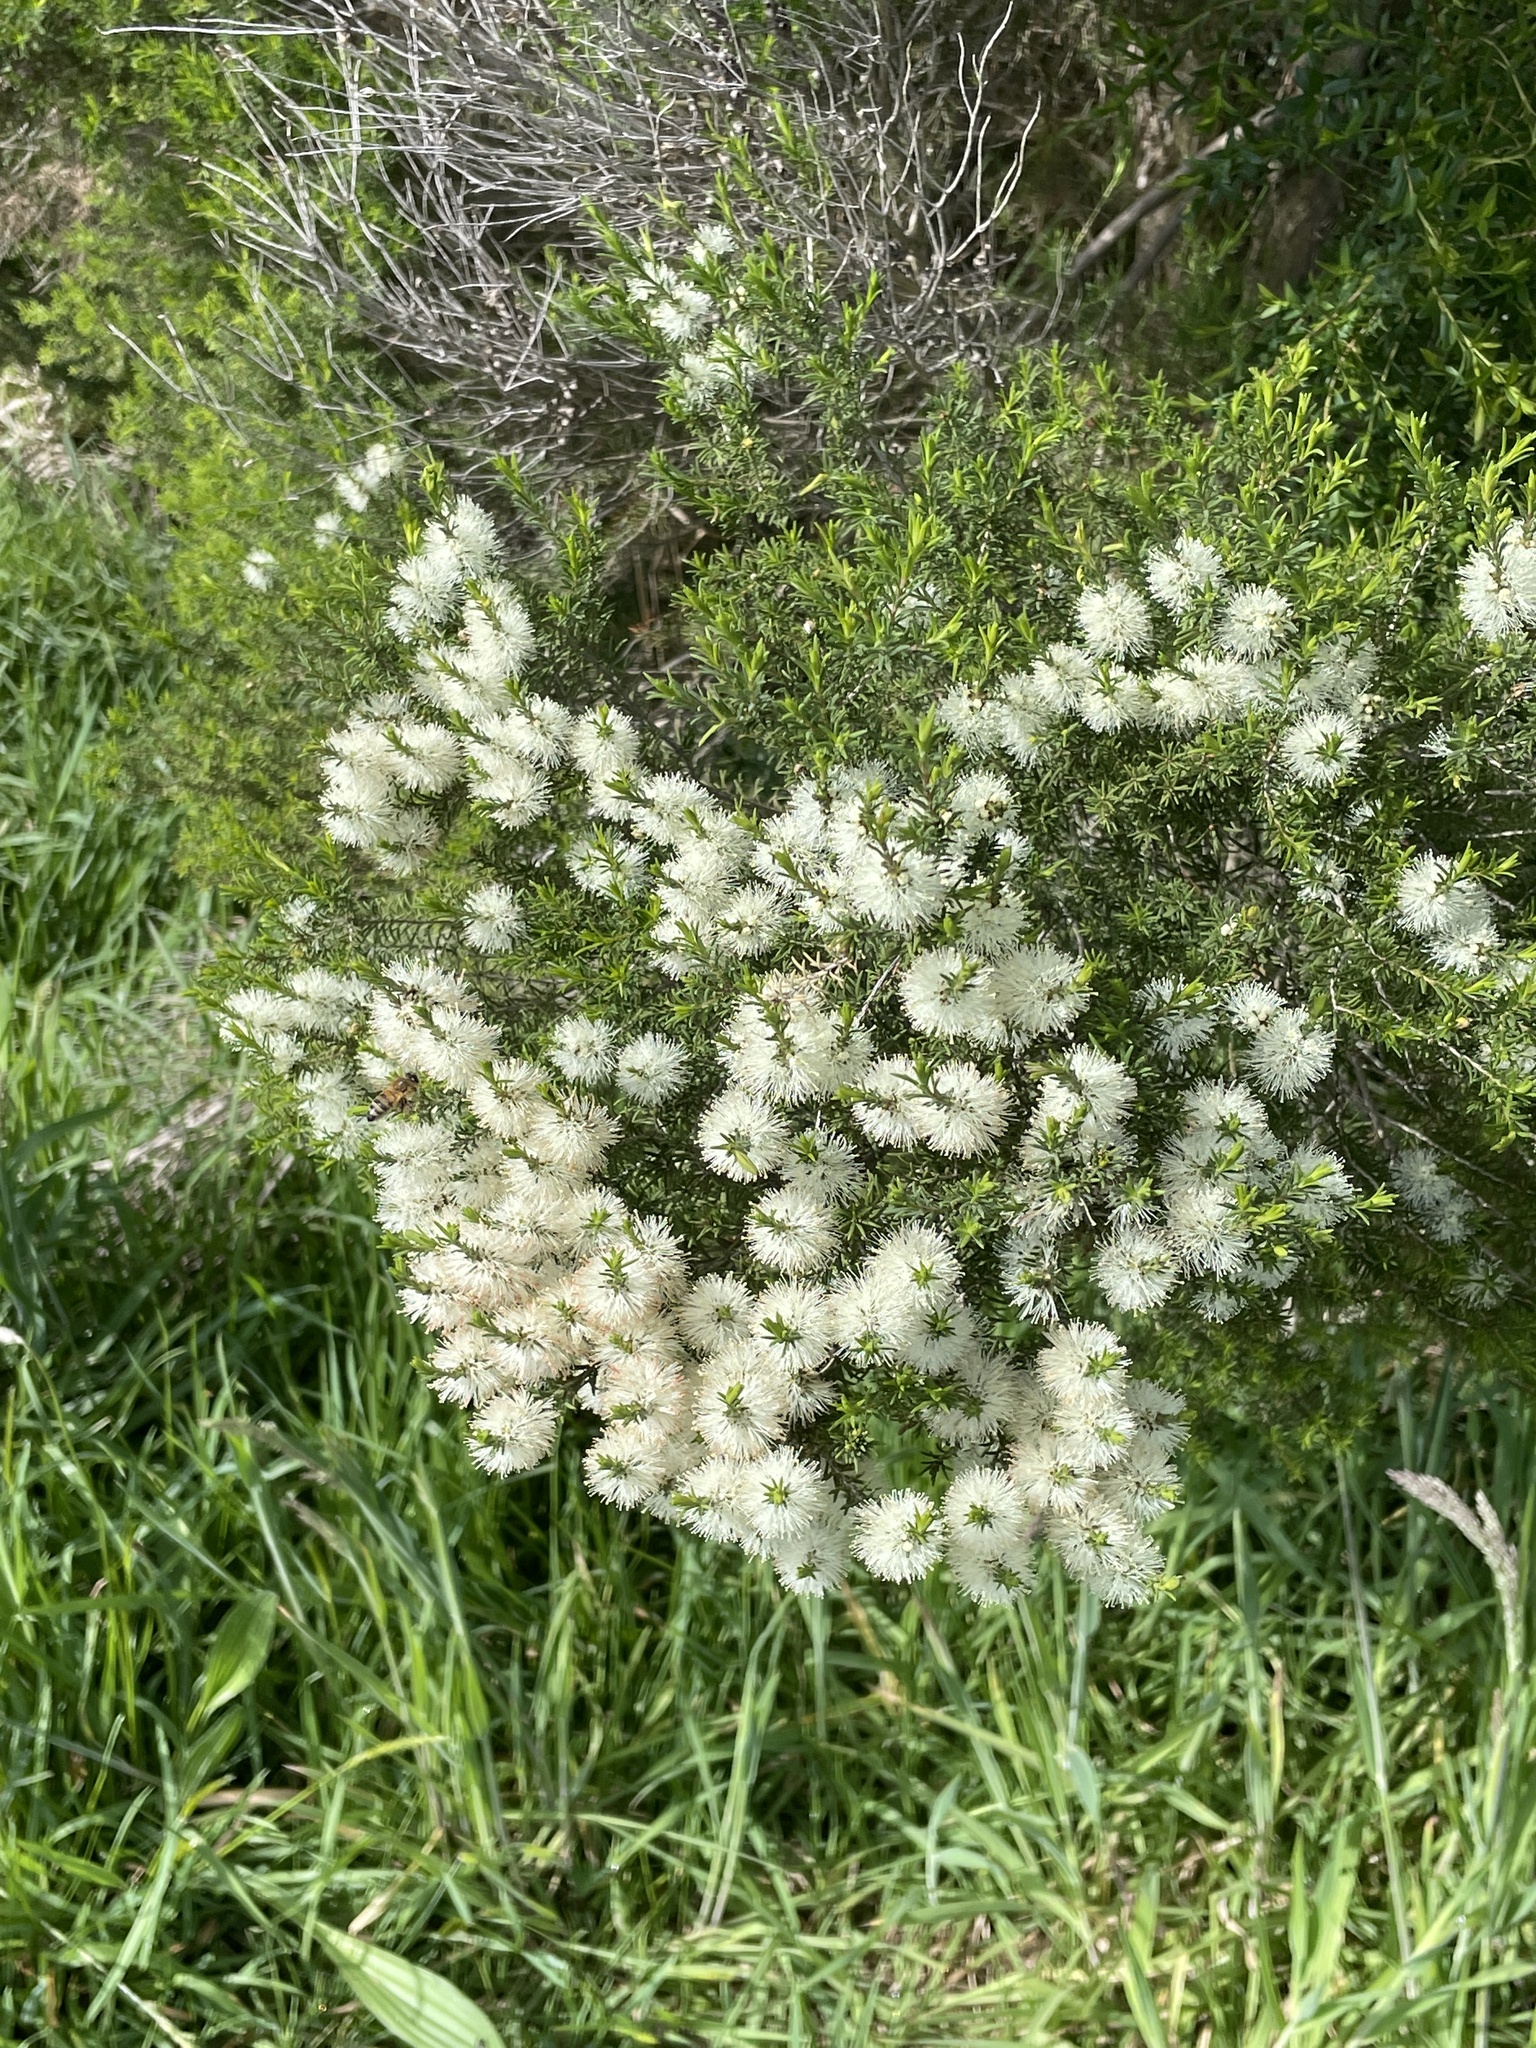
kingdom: Plantae
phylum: Tracheophyta
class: Magnoliopsida
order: Myrtales
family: Myrtaceae
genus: Melaleuca
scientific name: Melaleuca lanceolata
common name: Rottnest island teatree
